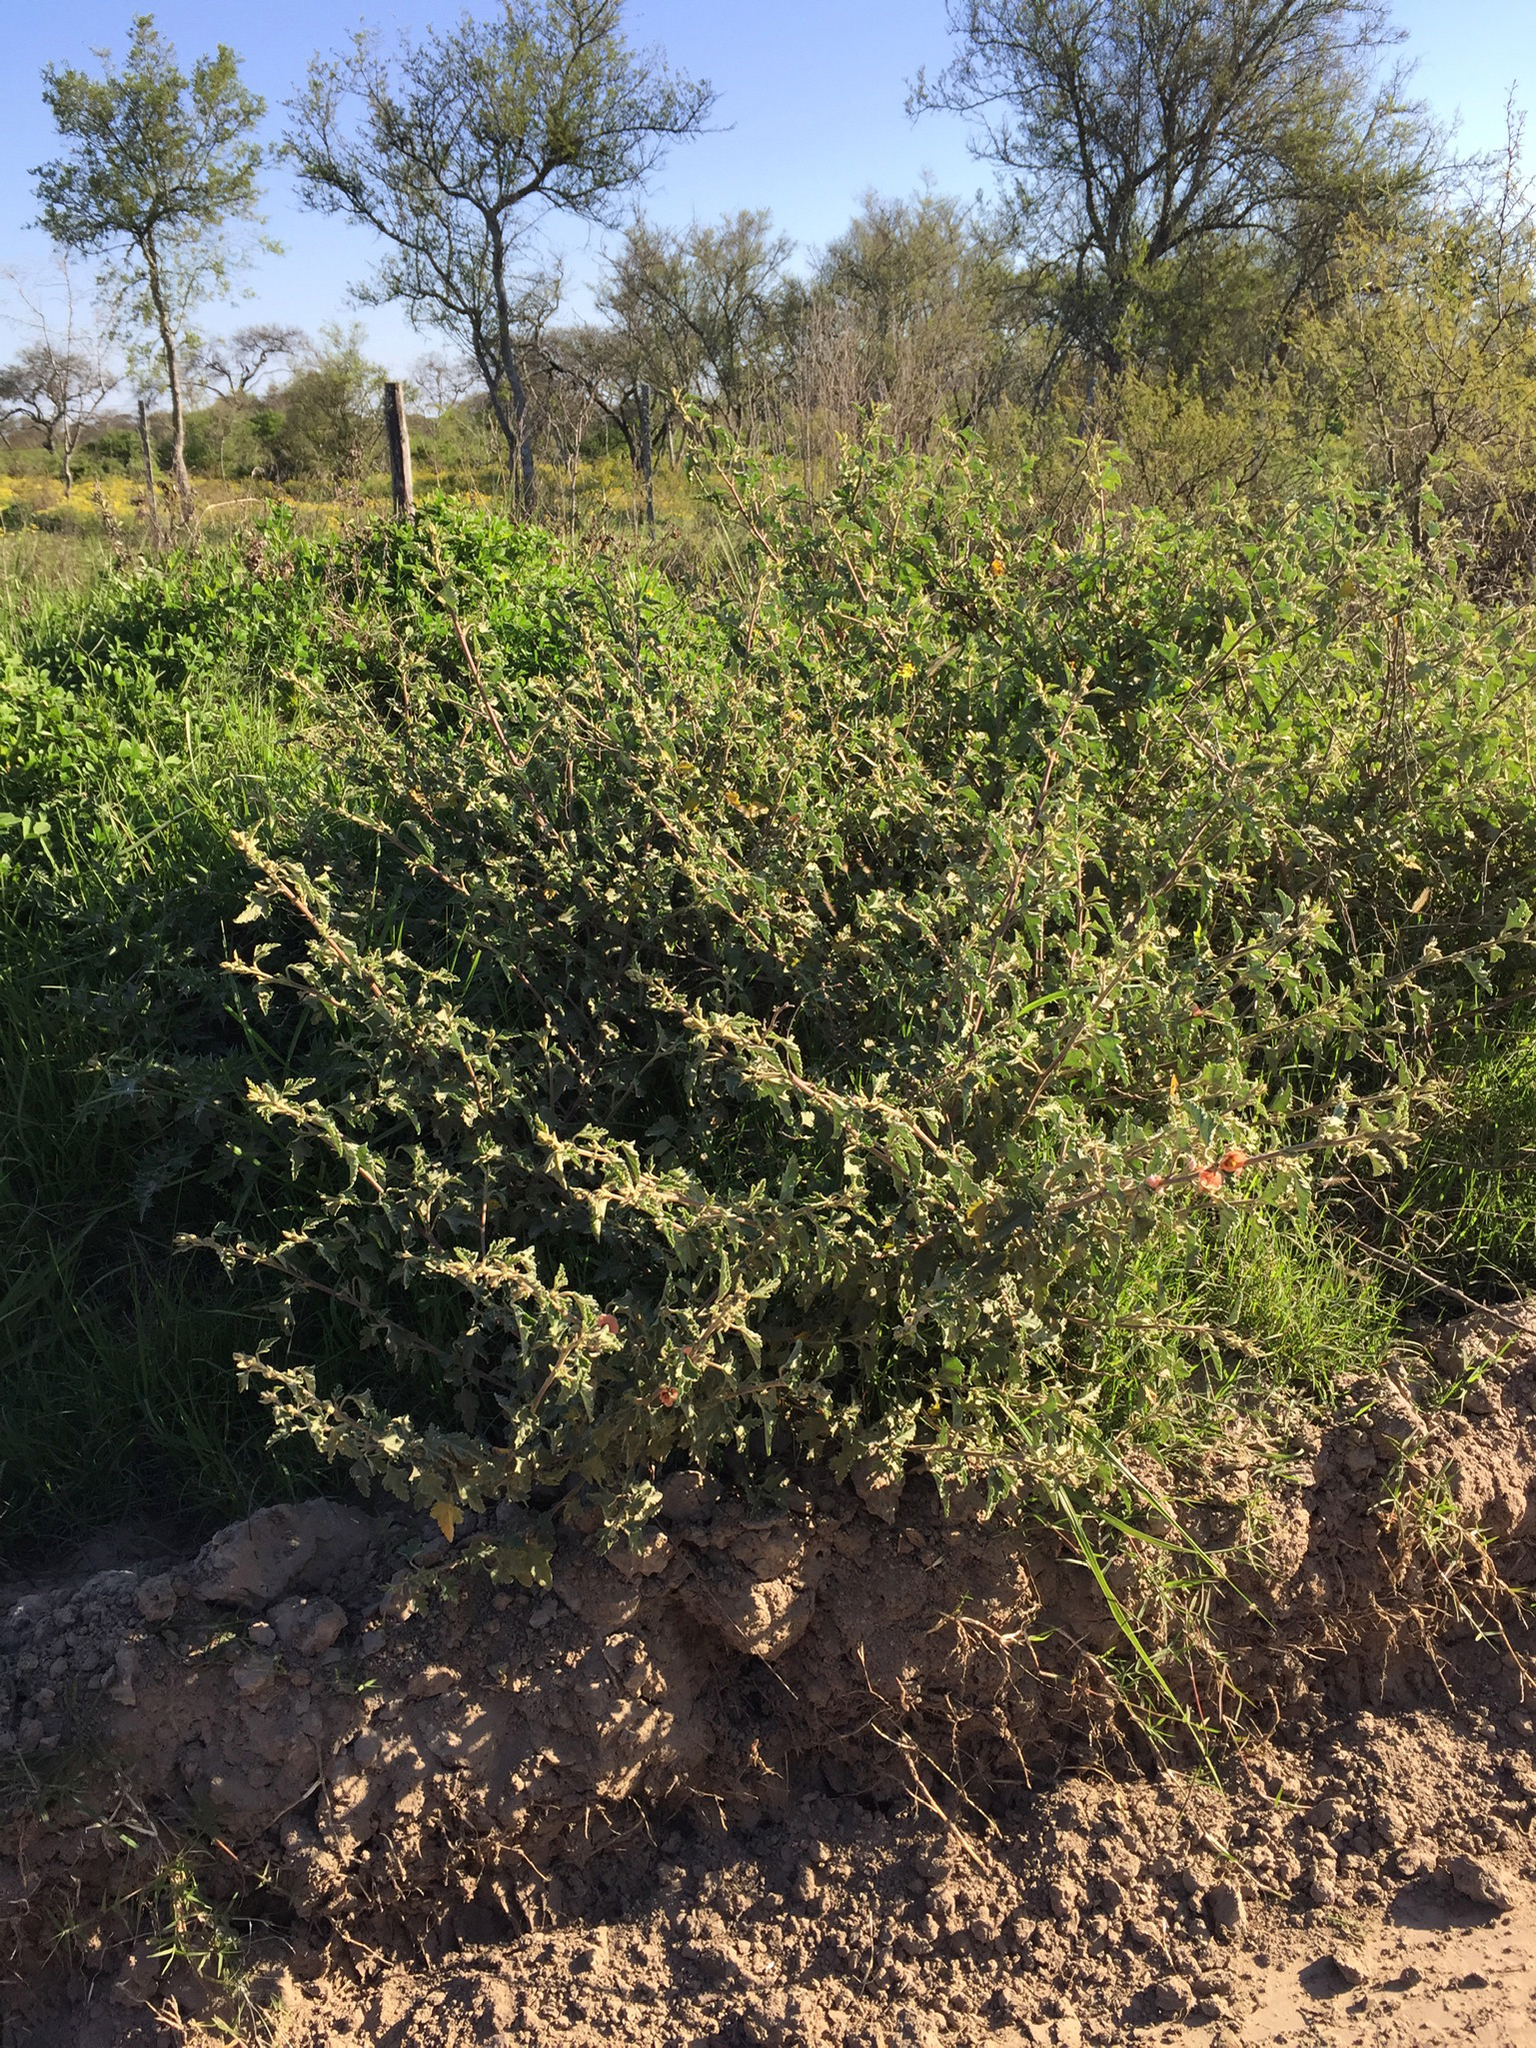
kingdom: Plantae
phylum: Tracheophyta
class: Magnoliopsida
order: Malvales
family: Malvaceae
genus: Sphaeralcea
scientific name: Sphaeralcea bonariensis
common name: Latin globemallow
